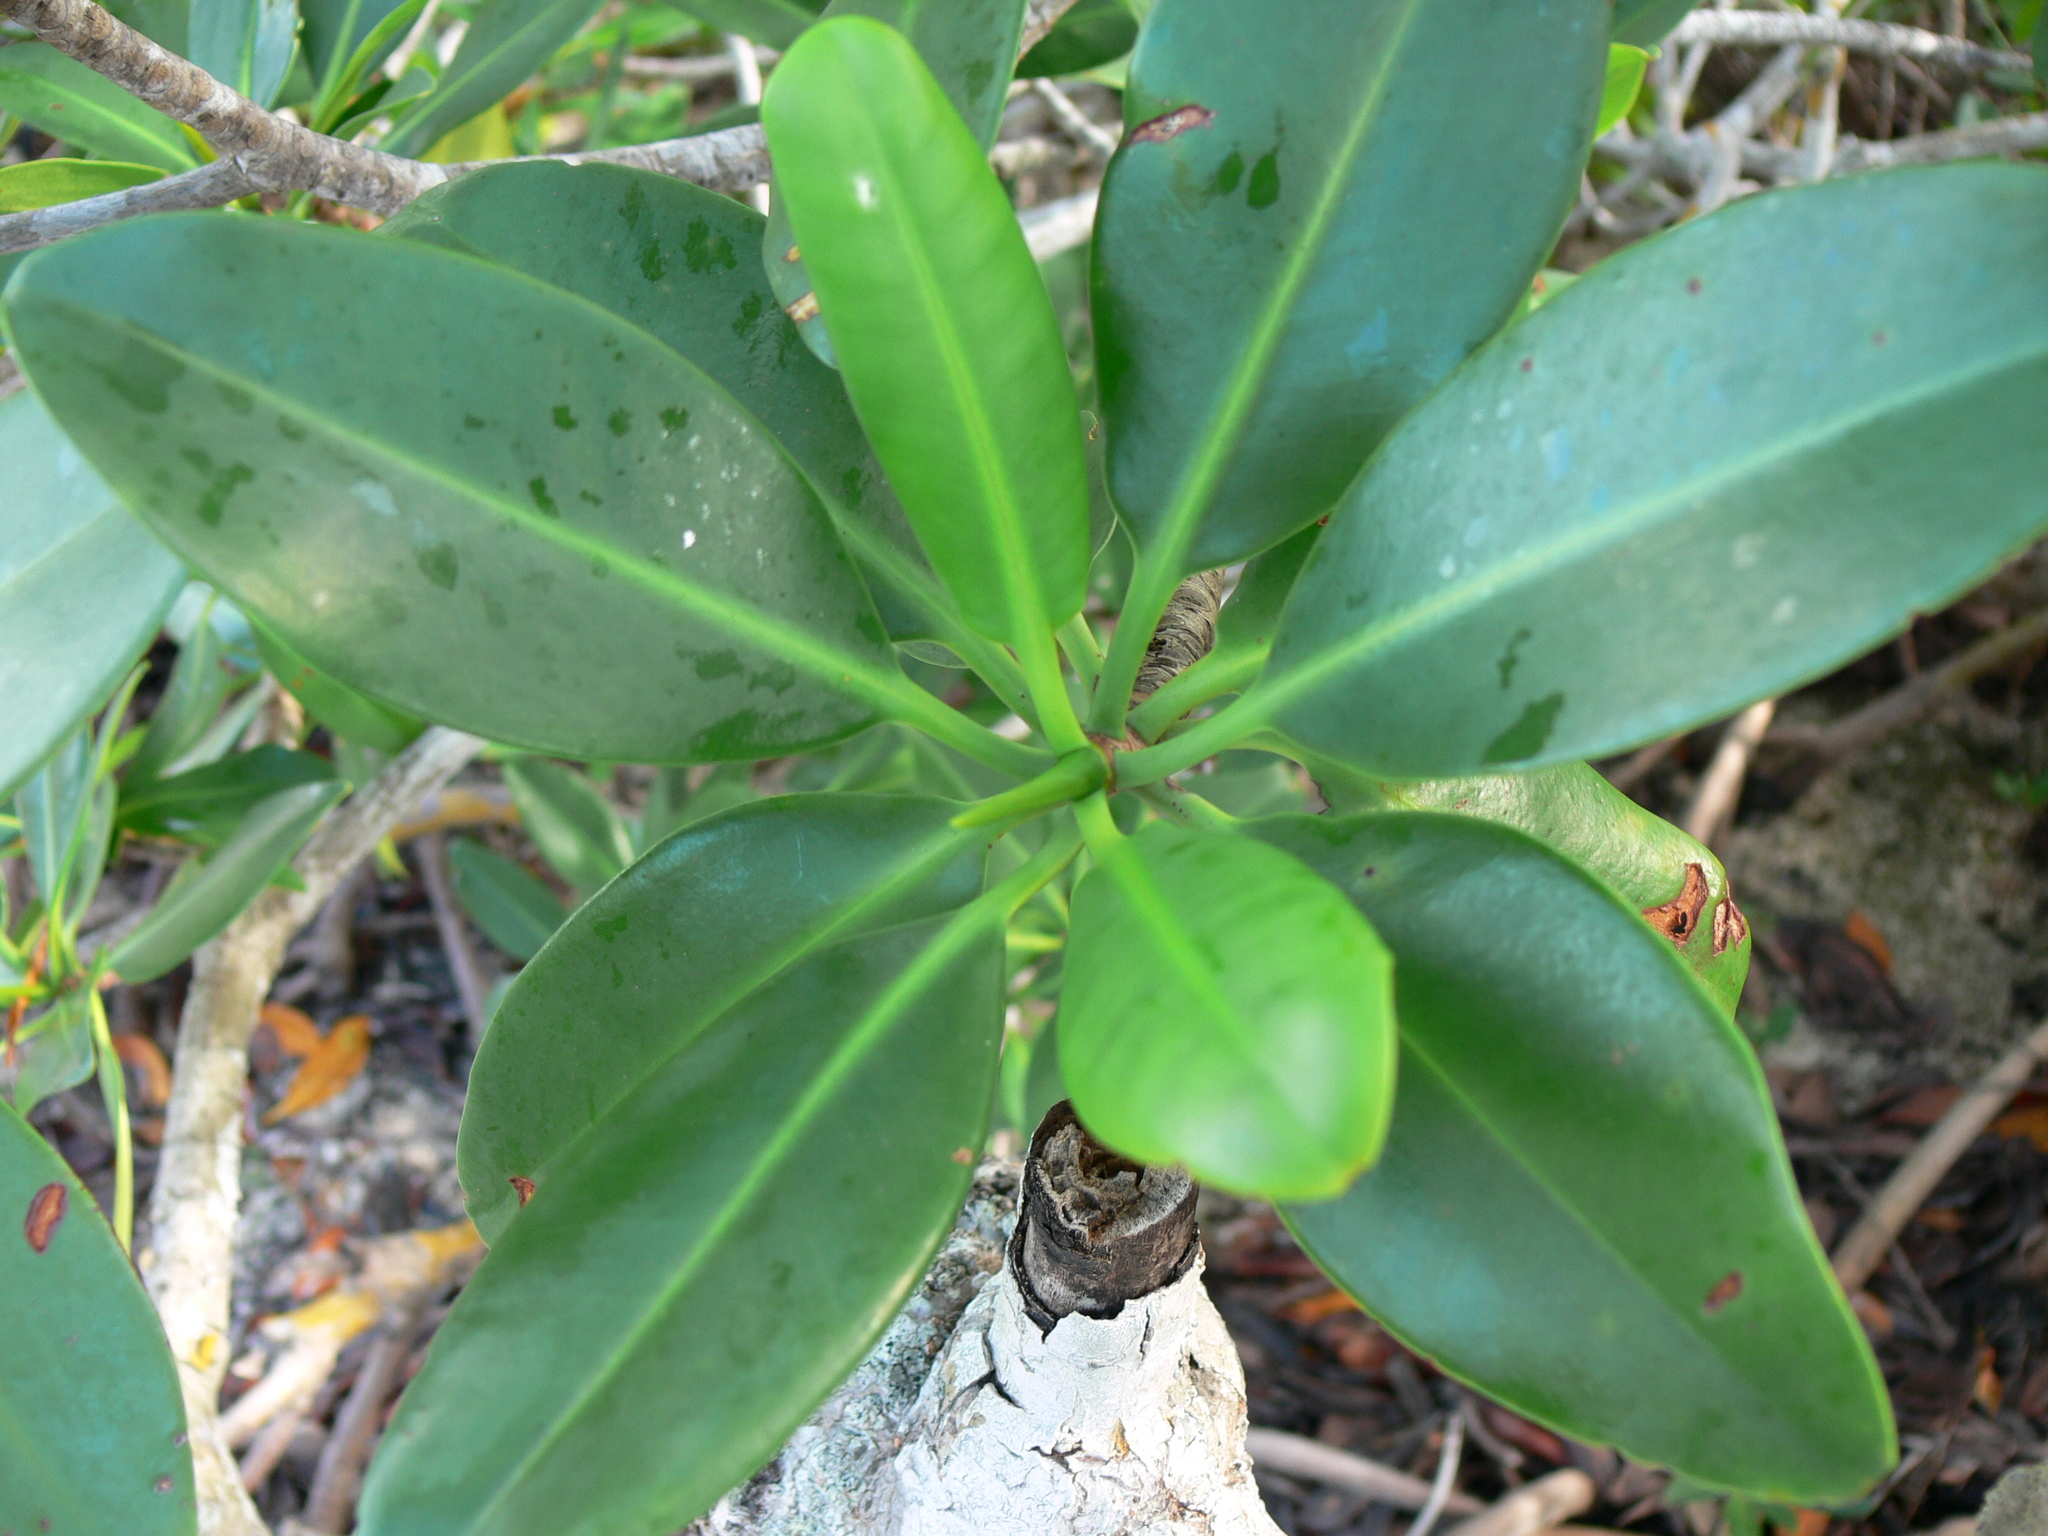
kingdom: Plantae
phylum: Tracheophyta
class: Magnoliopsida
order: Malpighiales
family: Rhizophoraceae
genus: Rhizophora
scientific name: Rhizophora mangle
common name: Red mangrove
